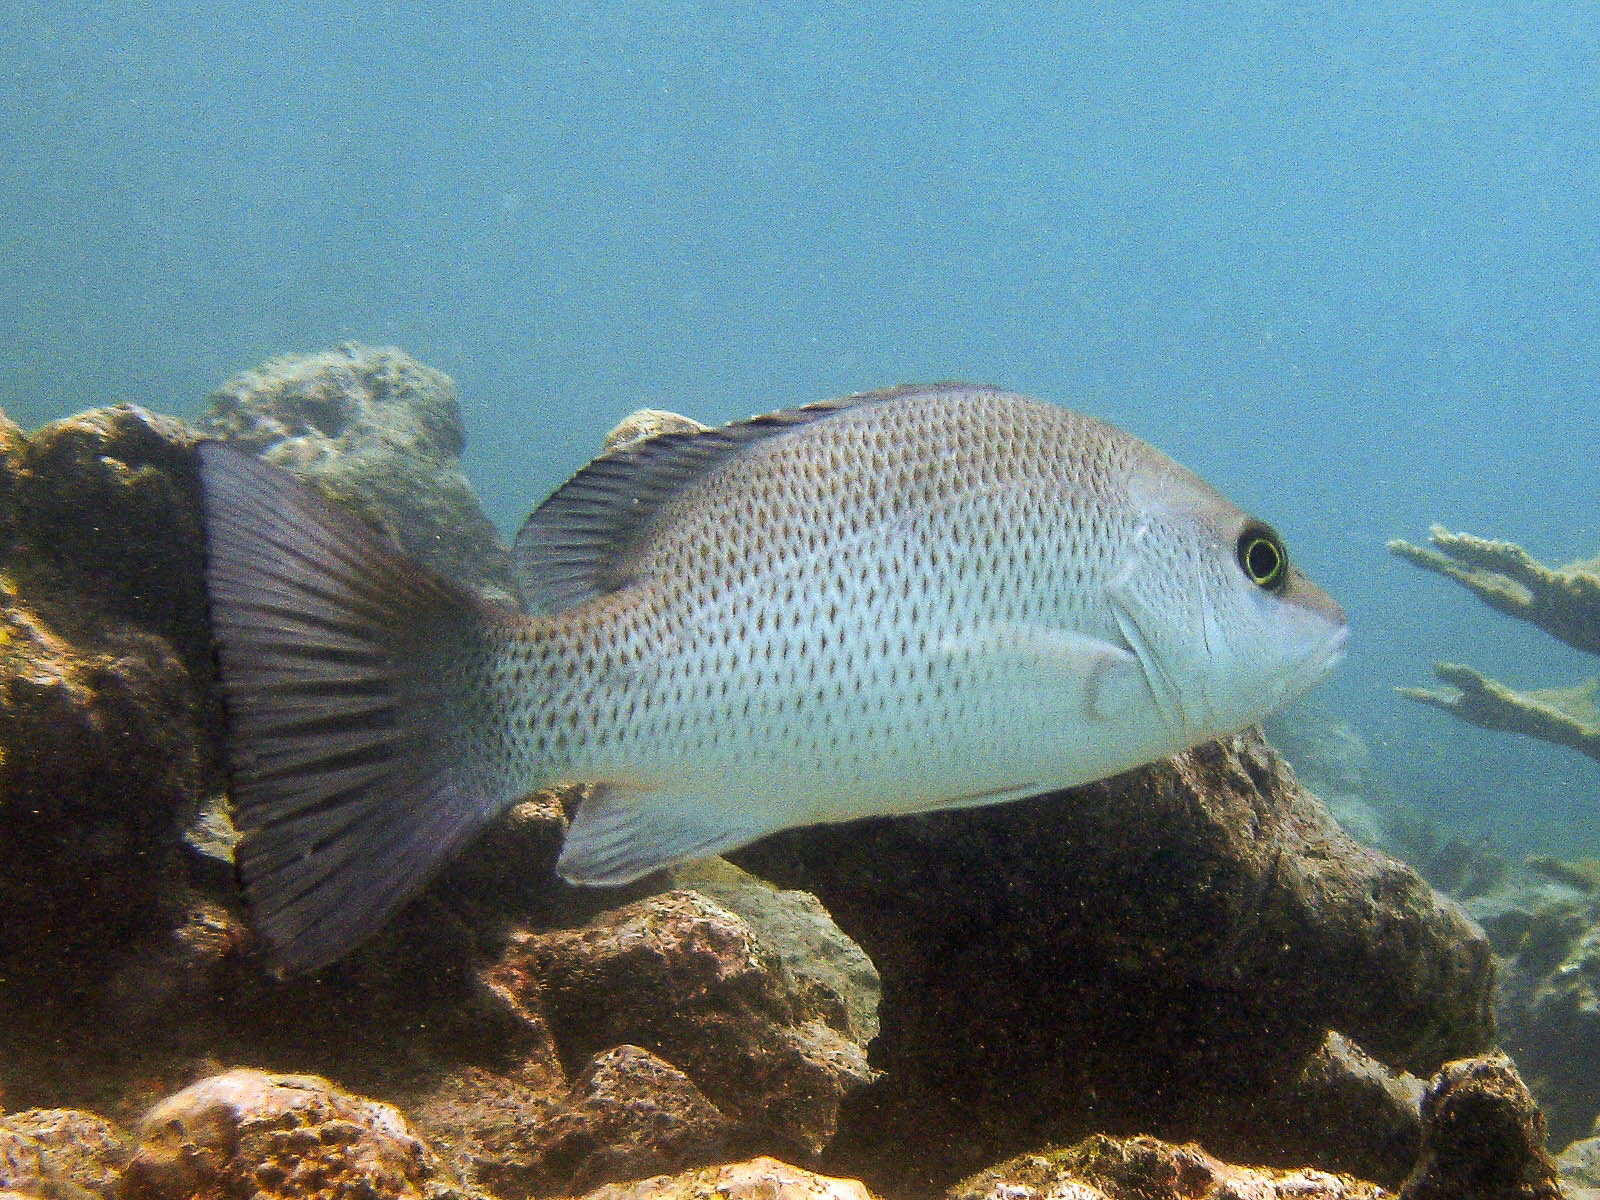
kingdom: Animalia
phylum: Chordata
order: Perciformes
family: Lutjanidae
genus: Lutjanus
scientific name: Lutjanus griseus
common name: Gray snapper
